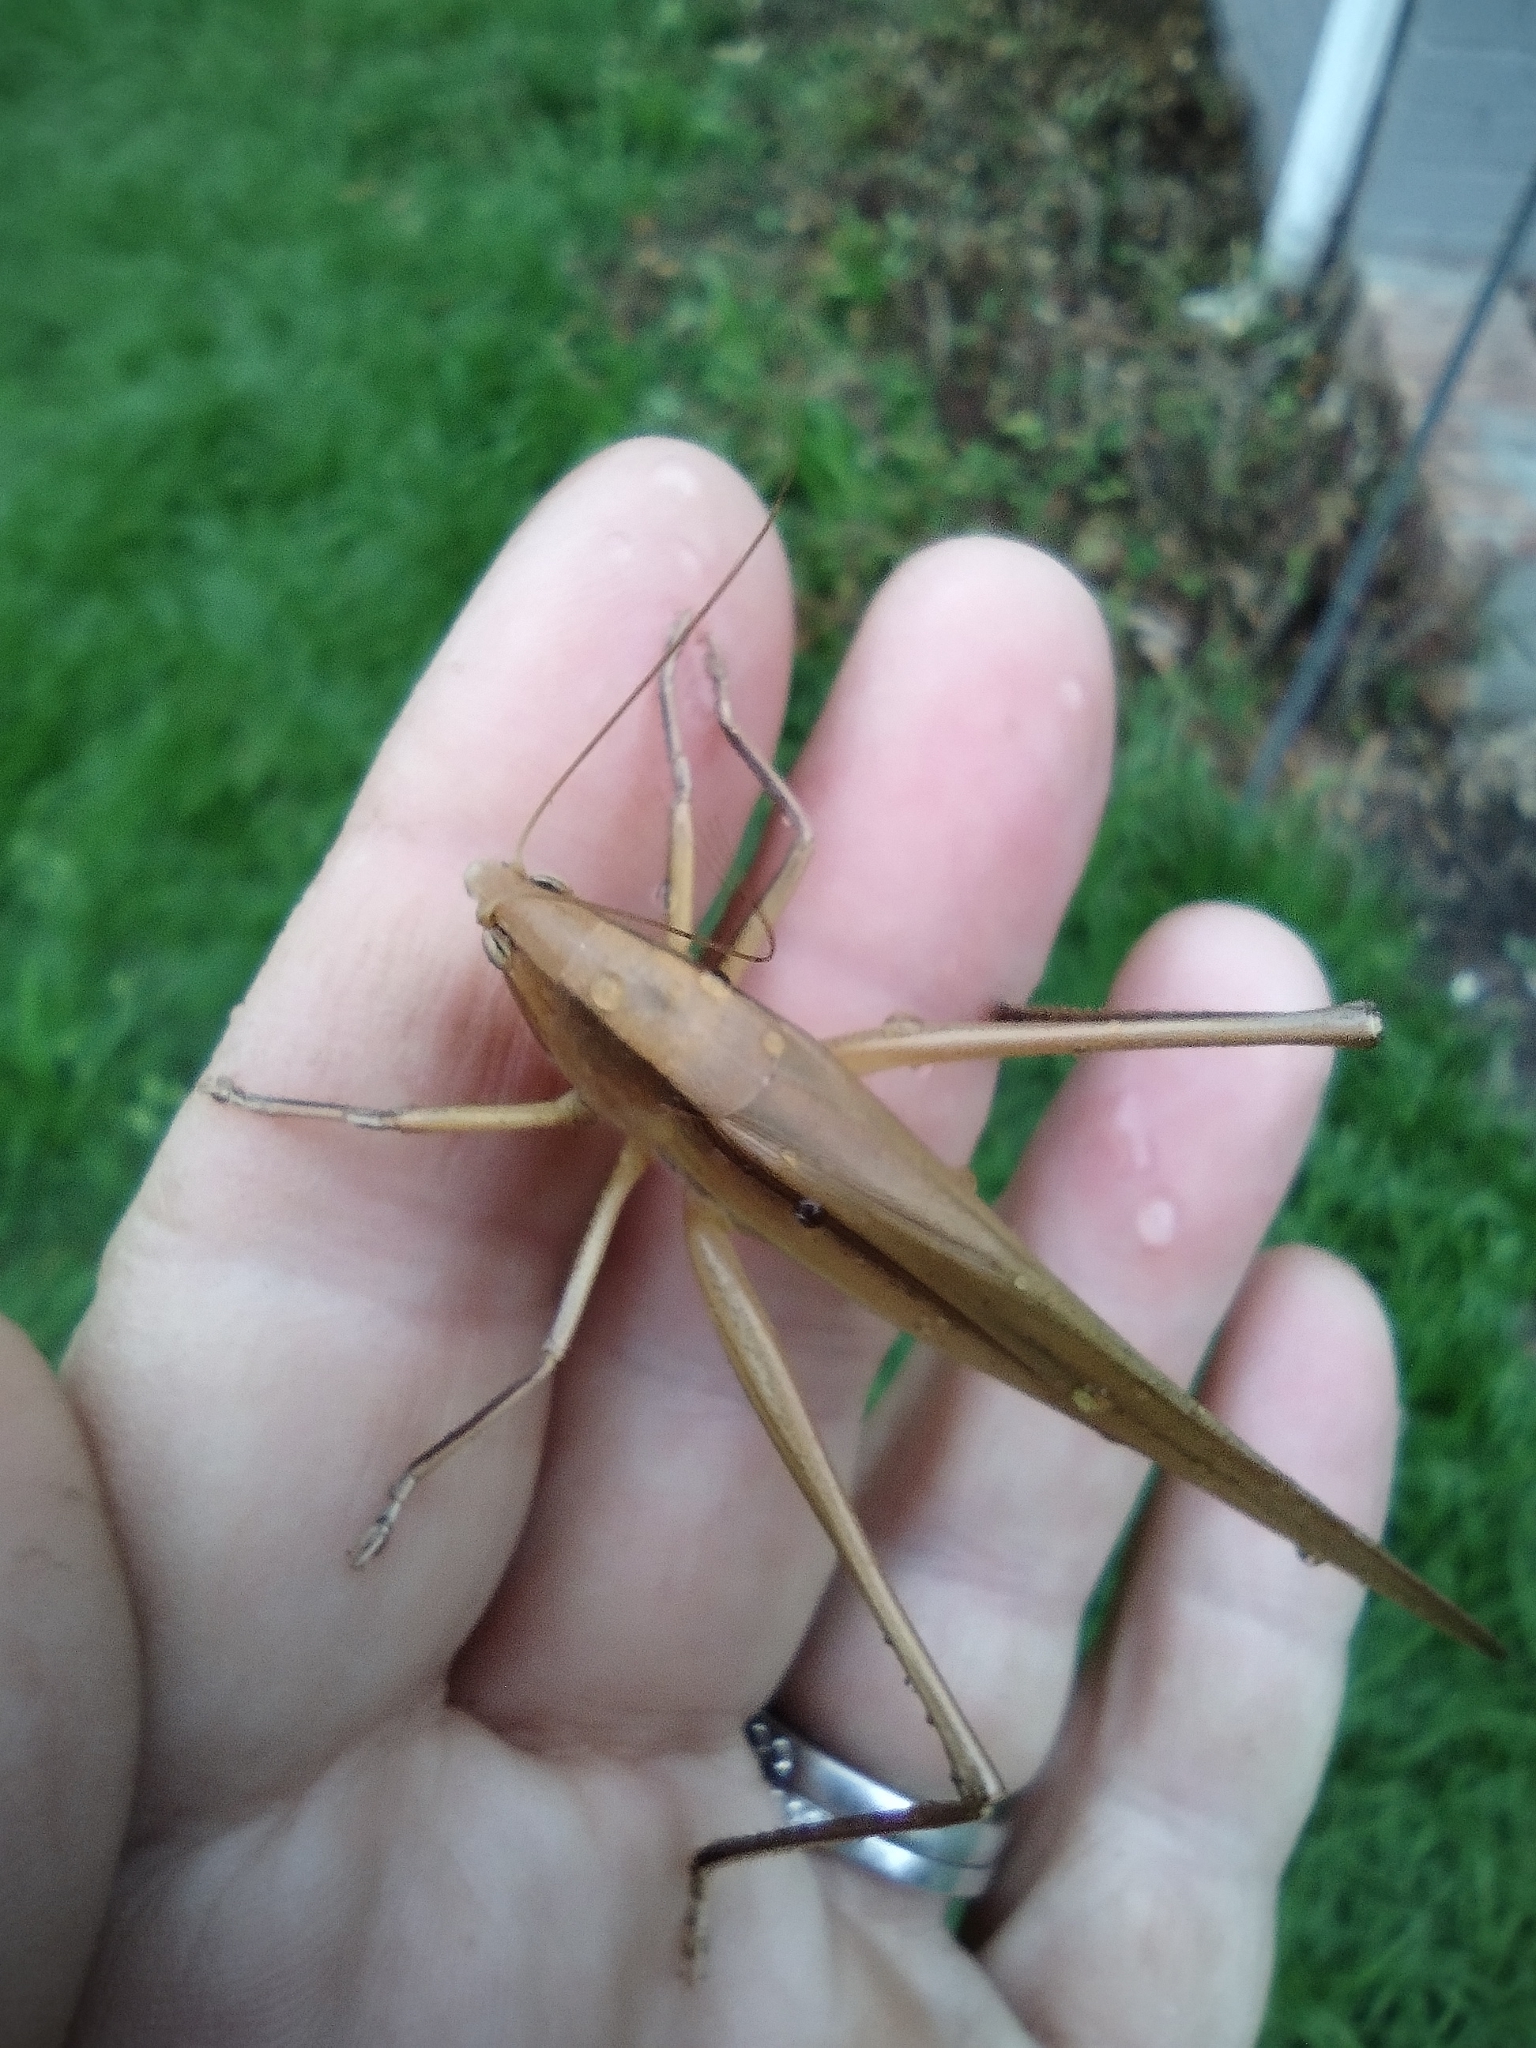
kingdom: Animalia
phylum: Arthropoda
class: Insecta
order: Orthoptera
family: Tettigoniidae
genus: Neoconocephalus
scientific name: Neoconocephalus triops
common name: Broad-tipped conehead
